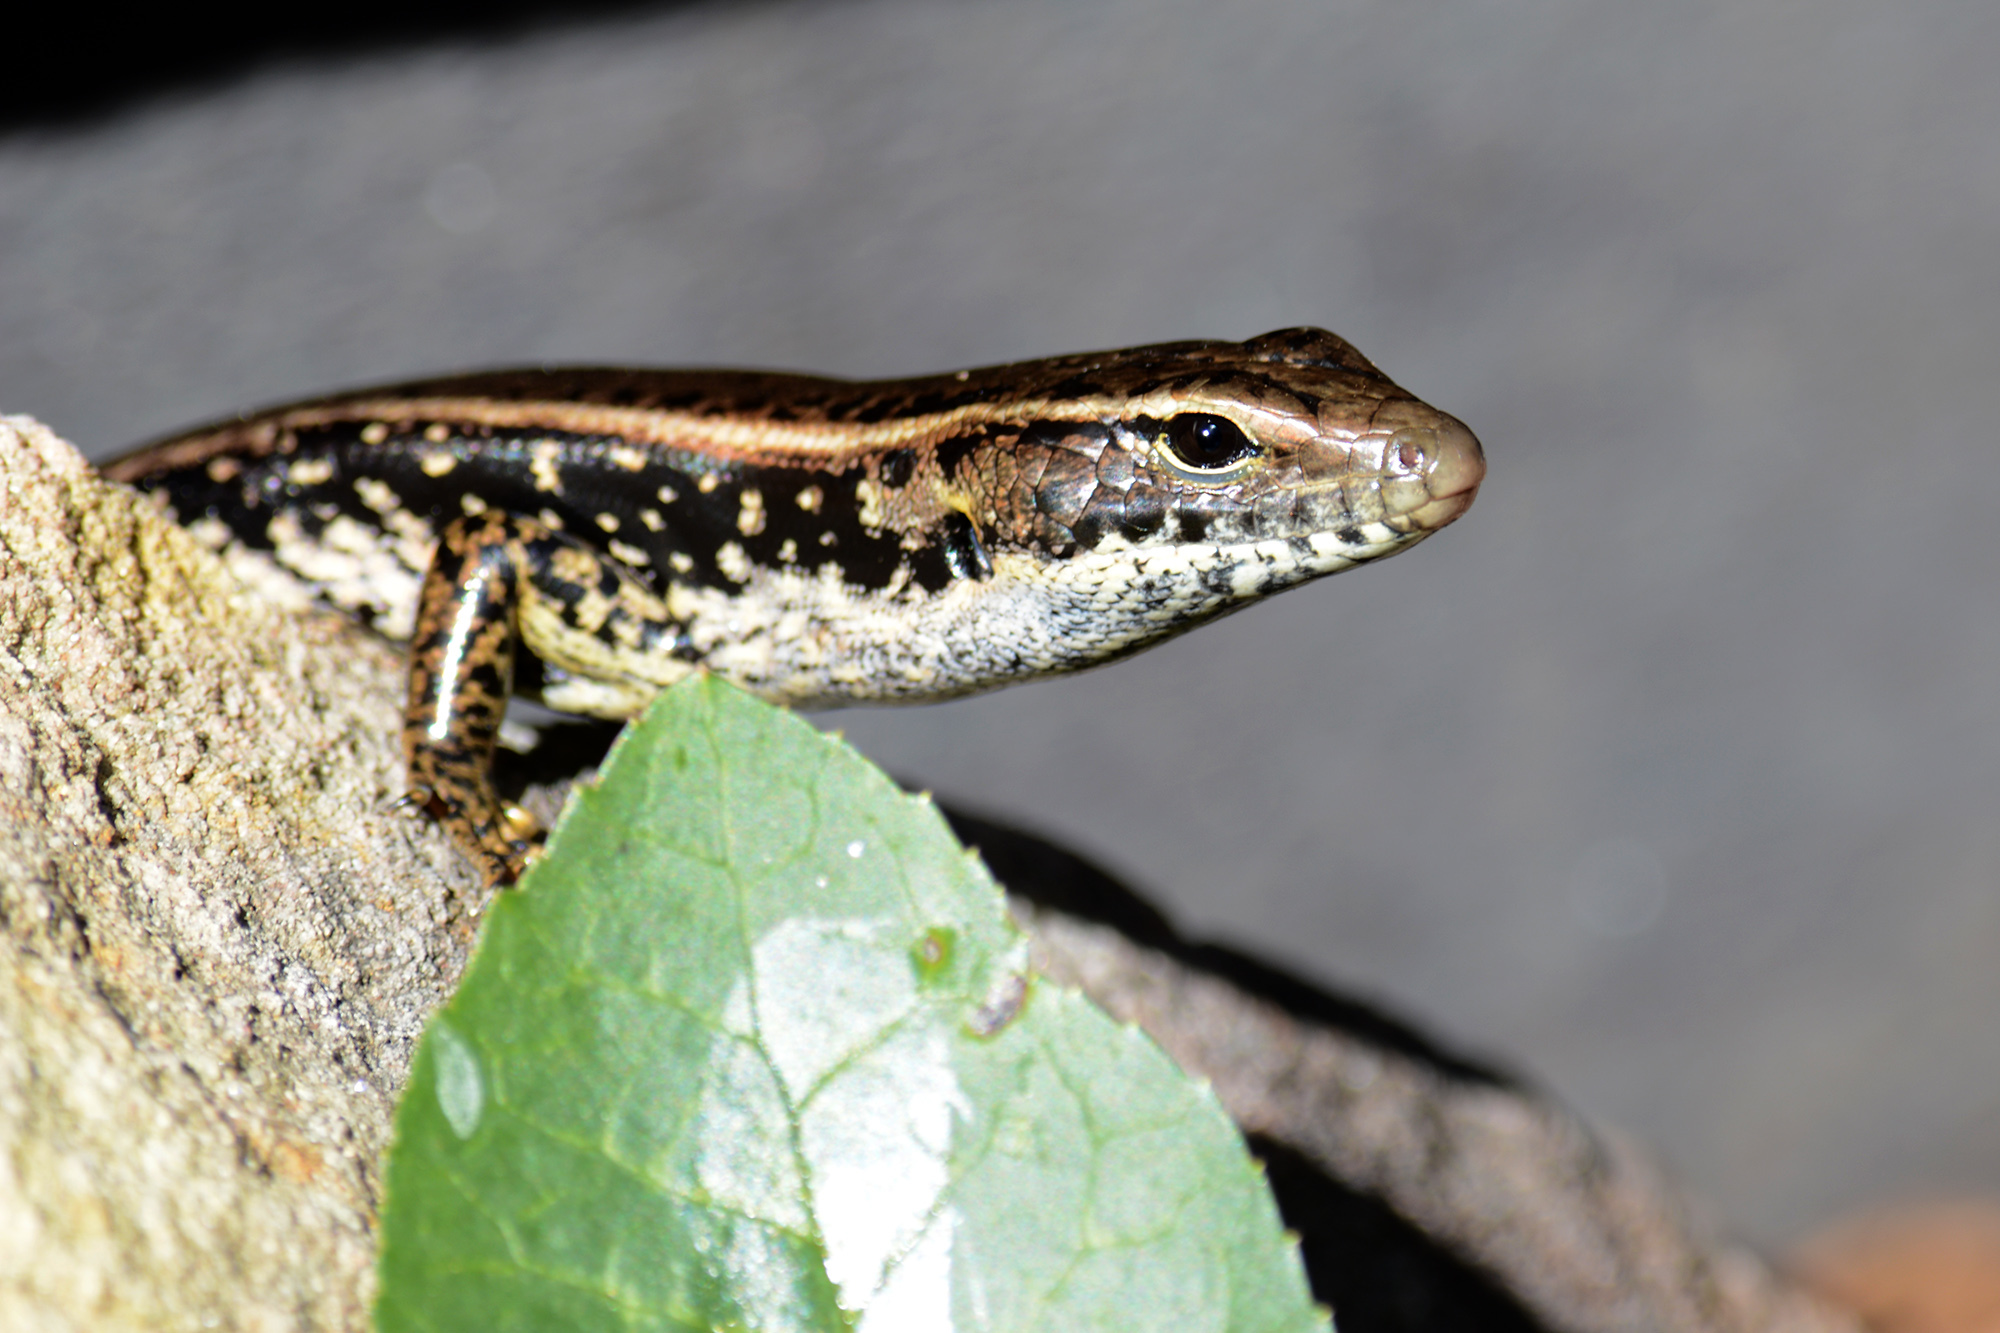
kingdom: Animalia
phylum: Chordata
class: Squamata
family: Scincidae
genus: Eulamprus
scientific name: Eulamprus quoyii
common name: Eastern water skink
